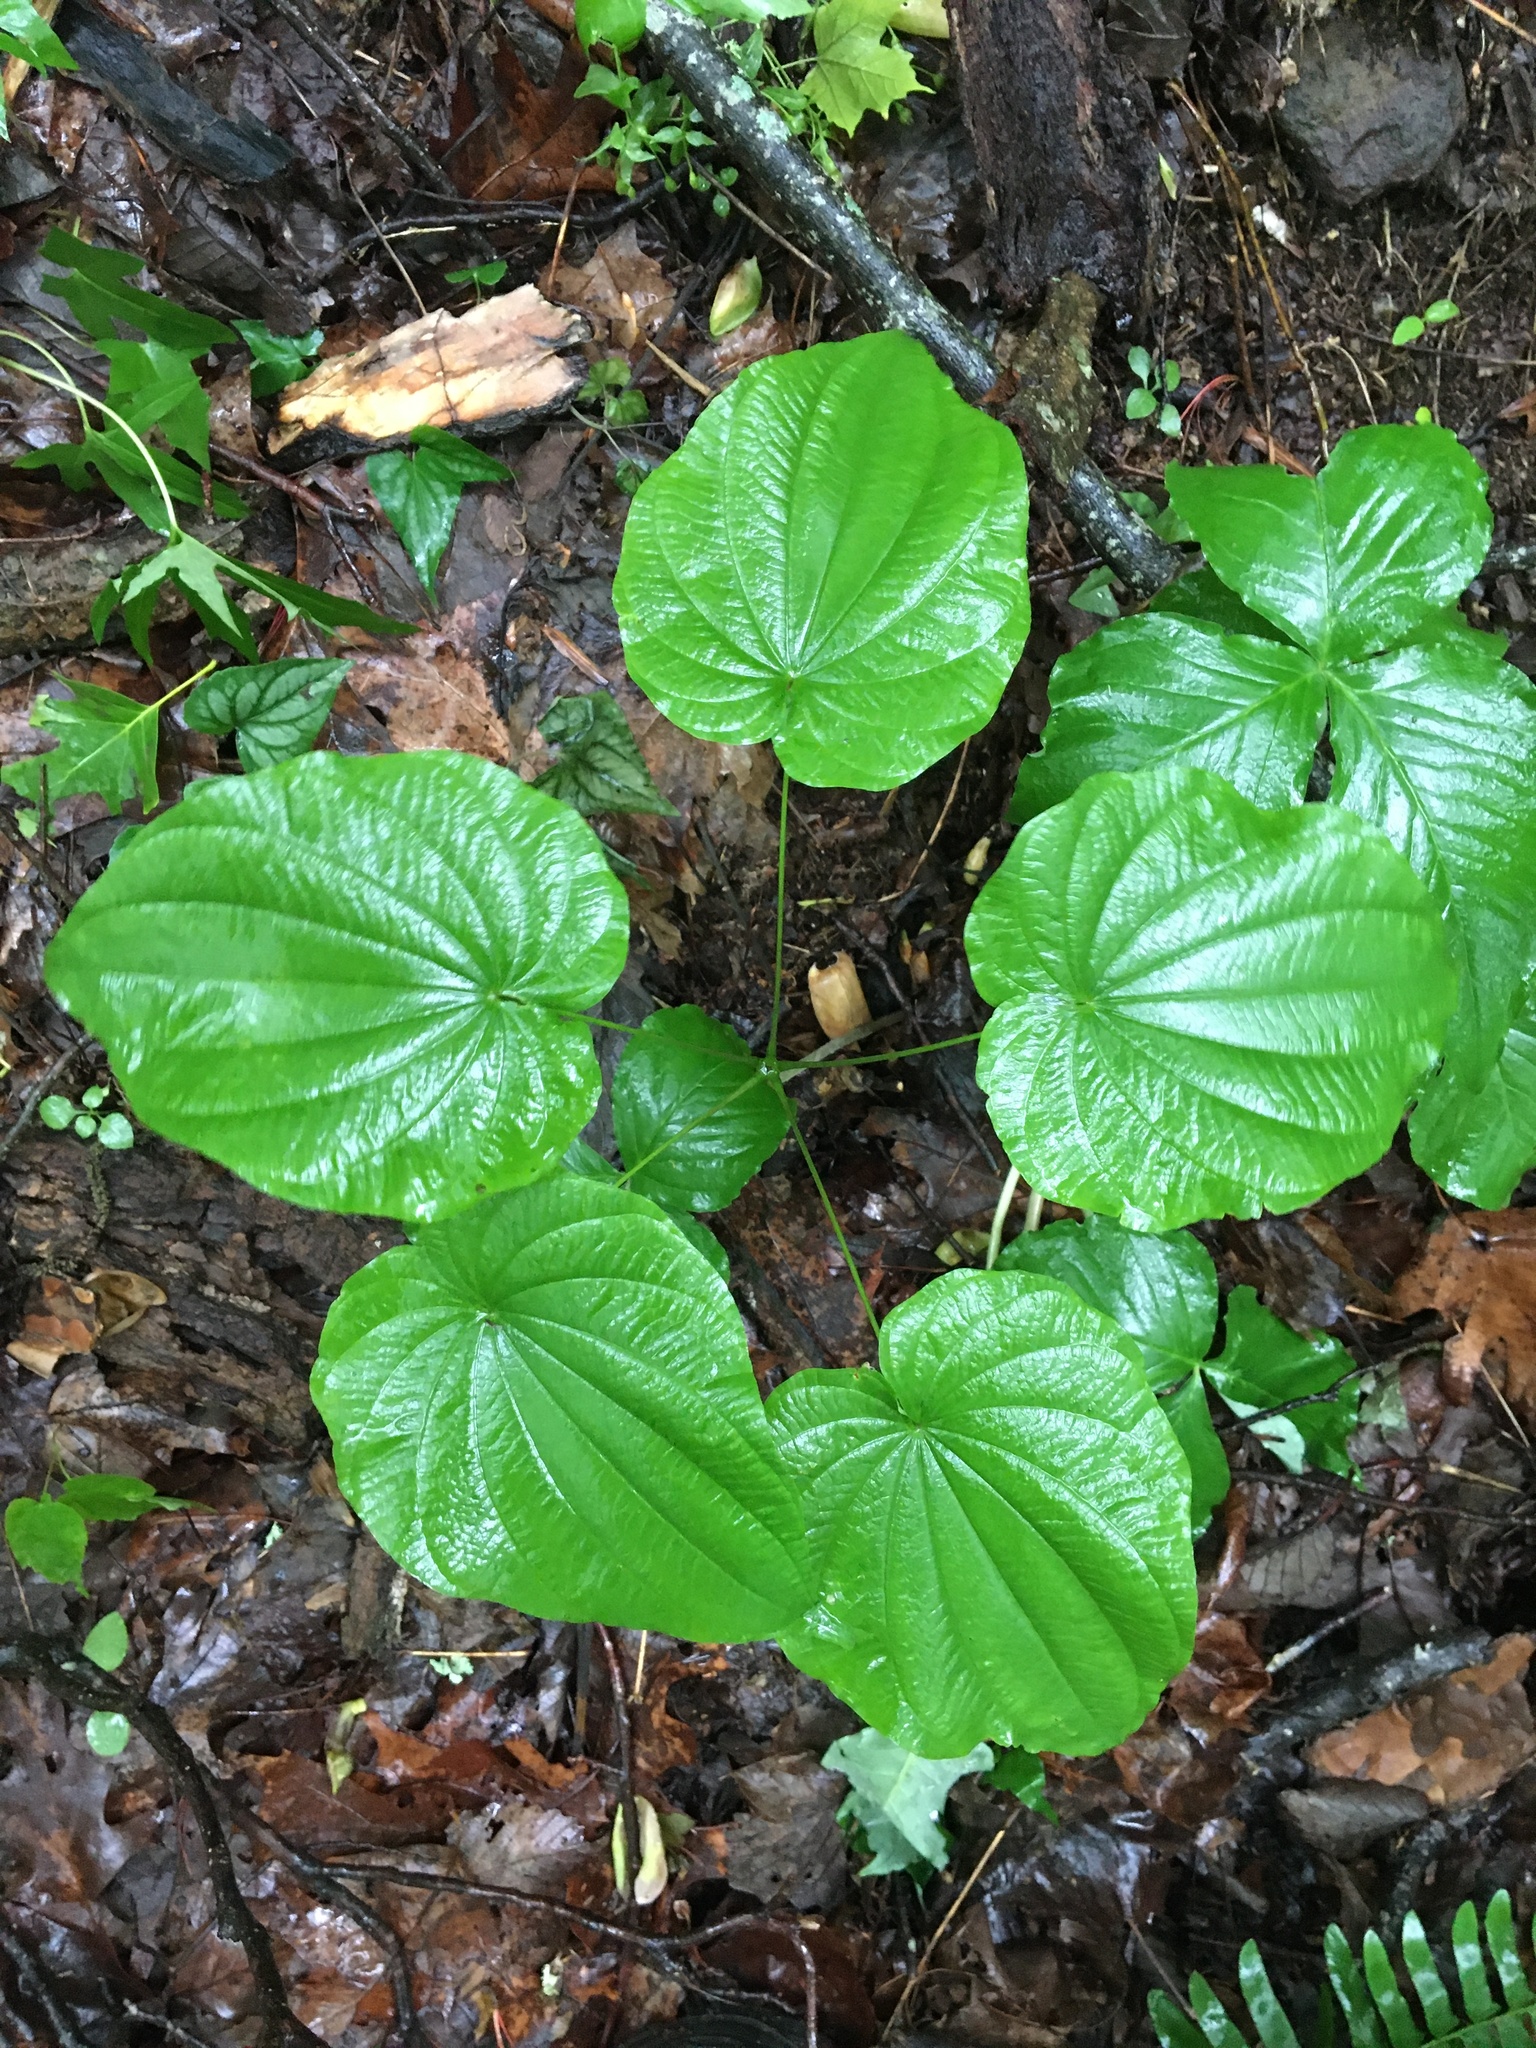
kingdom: Plantae
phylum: Tracheophyta
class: Liliopsida
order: Dioscoreales
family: Dioscoreaceae
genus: Dioscorea
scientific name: Dioscorea villosa
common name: Wild yam
